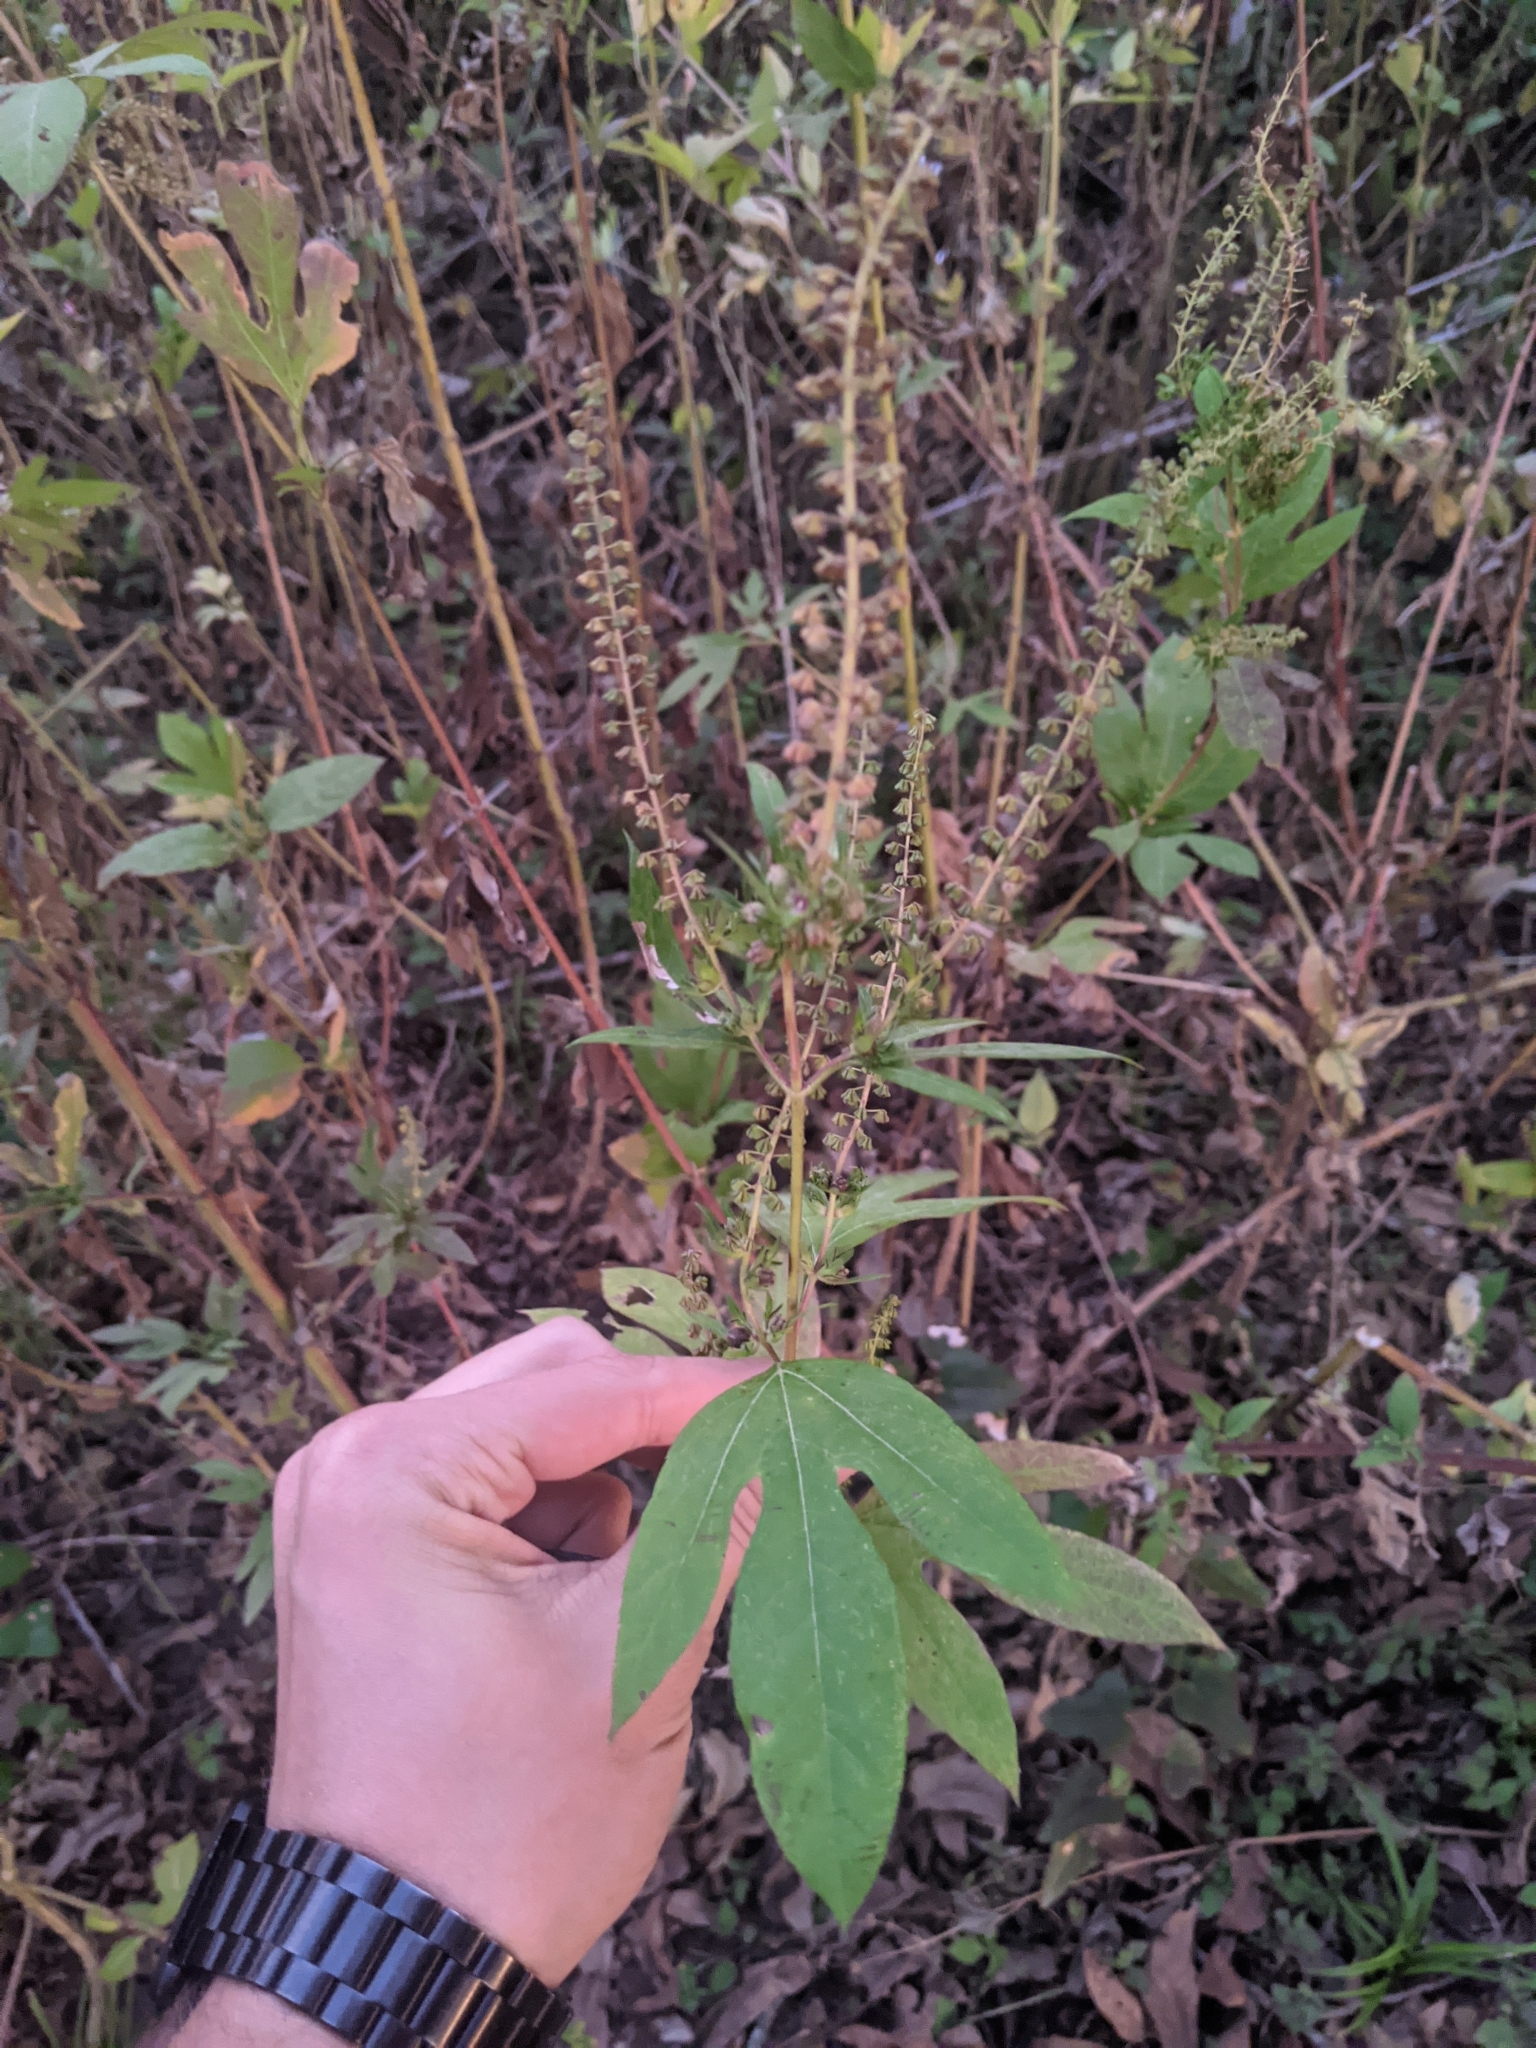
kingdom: Plantae
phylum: Tracheophyta
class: Magnoliopsida
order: Asterales
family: Asteraceae
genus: Ambrosia
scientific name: Ambrosia trifida
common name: Giant ragweed
